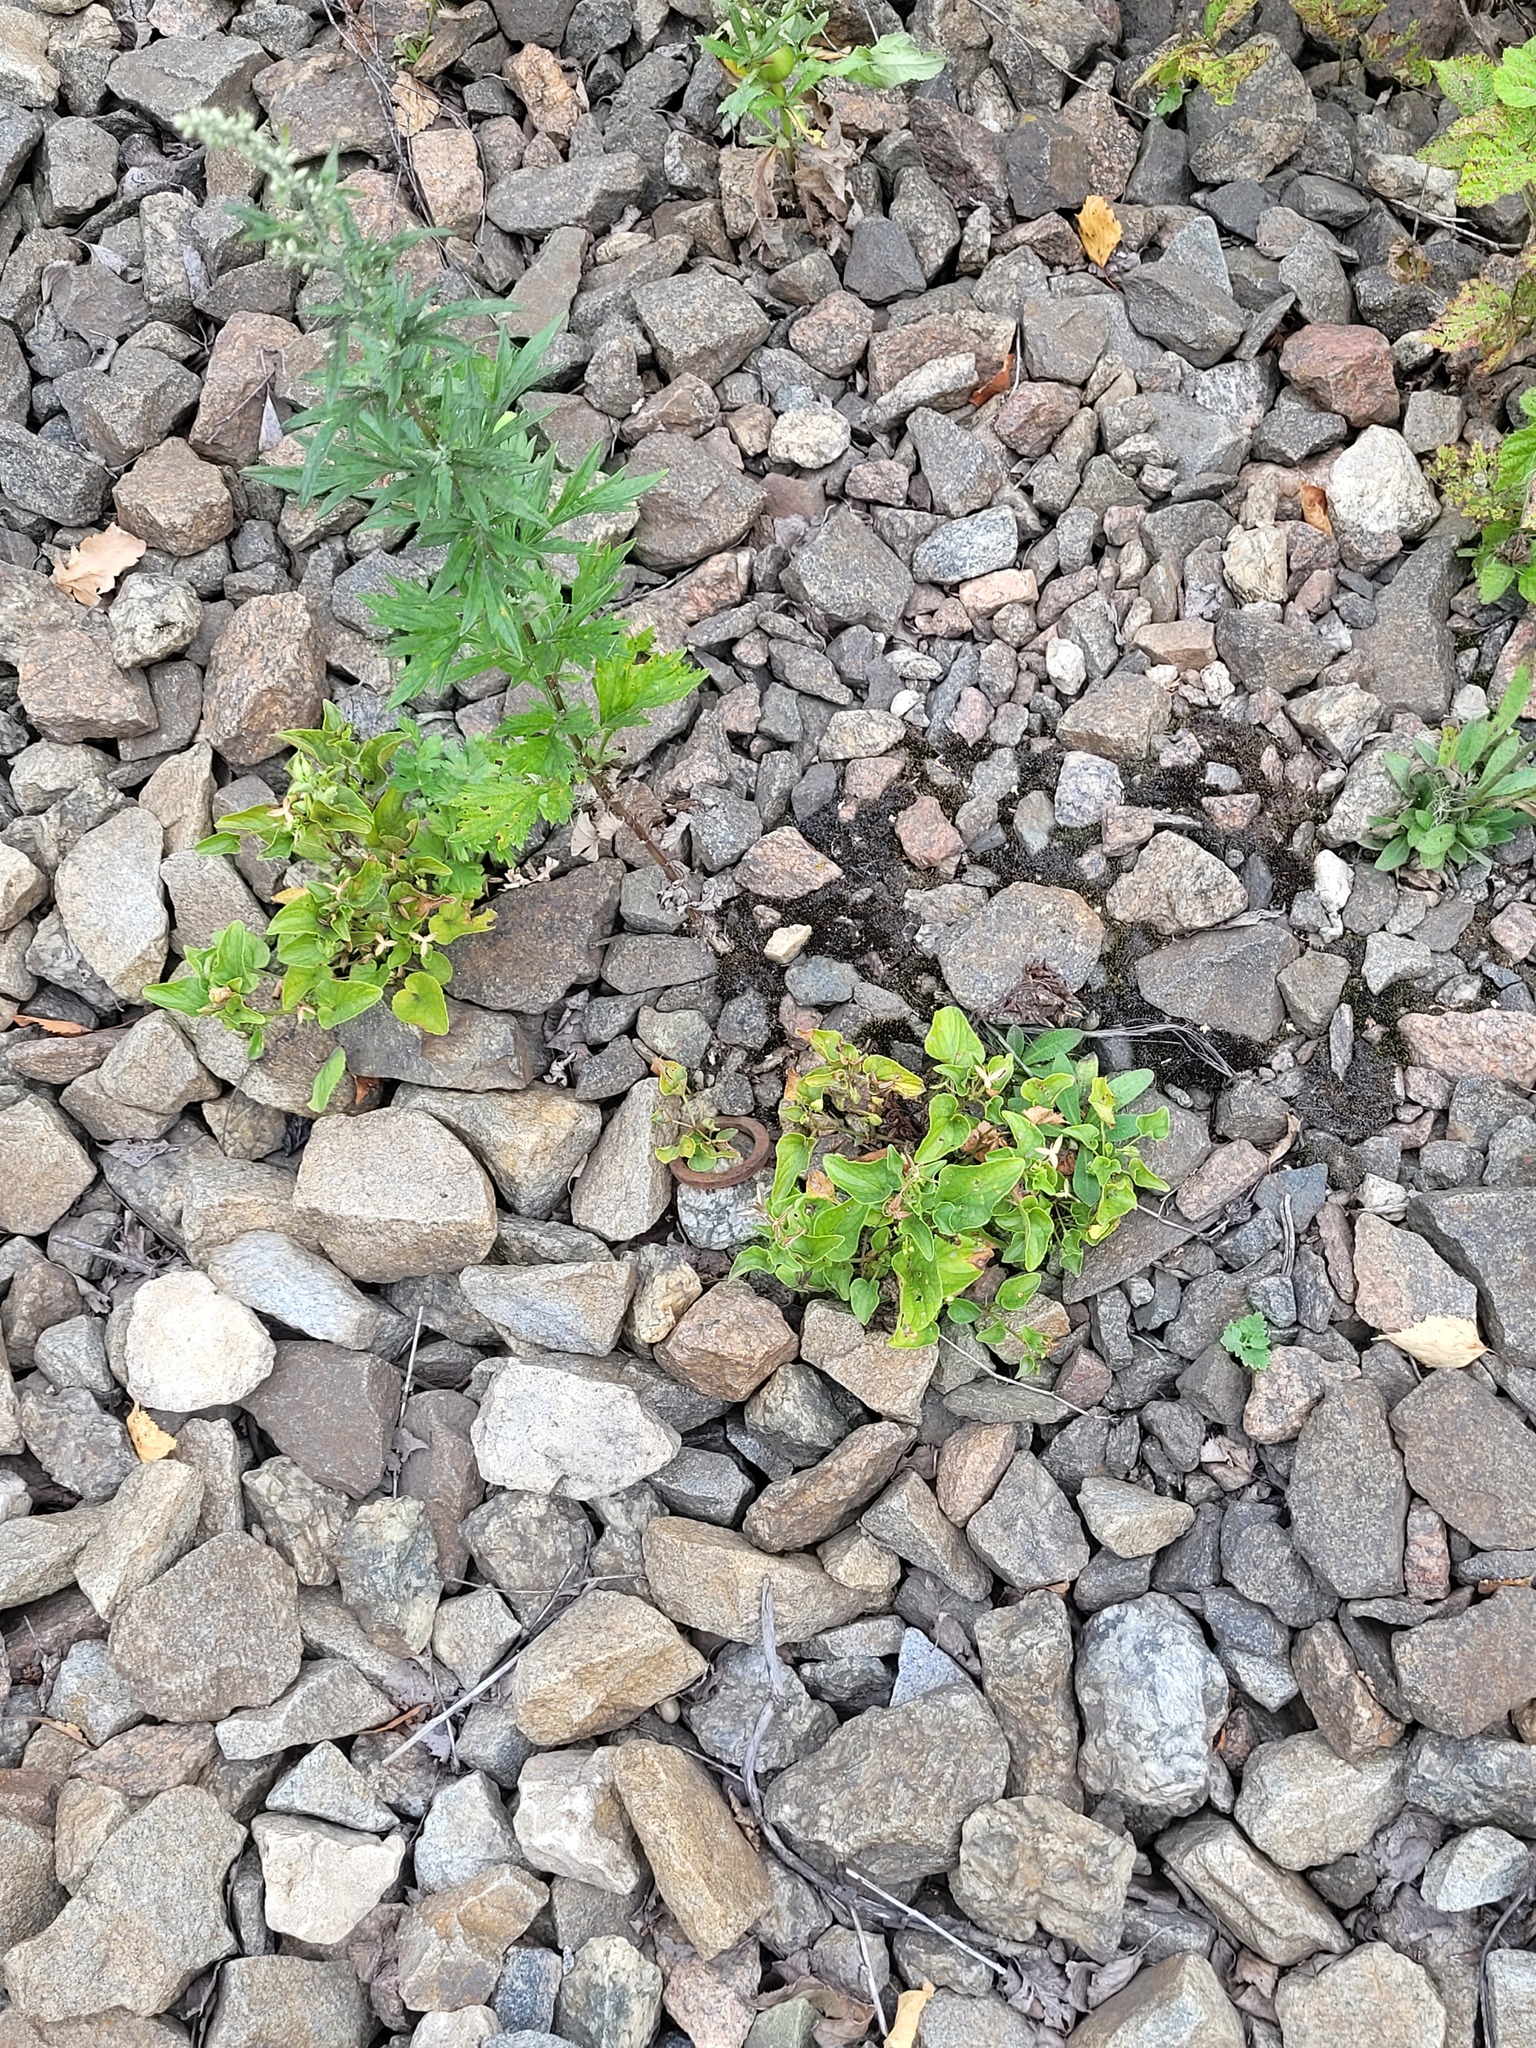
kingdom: Plantae
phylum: Tracheophyta
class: Magnoliopsida
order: Malpighiales
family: Violaceae
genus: Viola
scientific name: Viola canina
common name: Heath dog-violet
